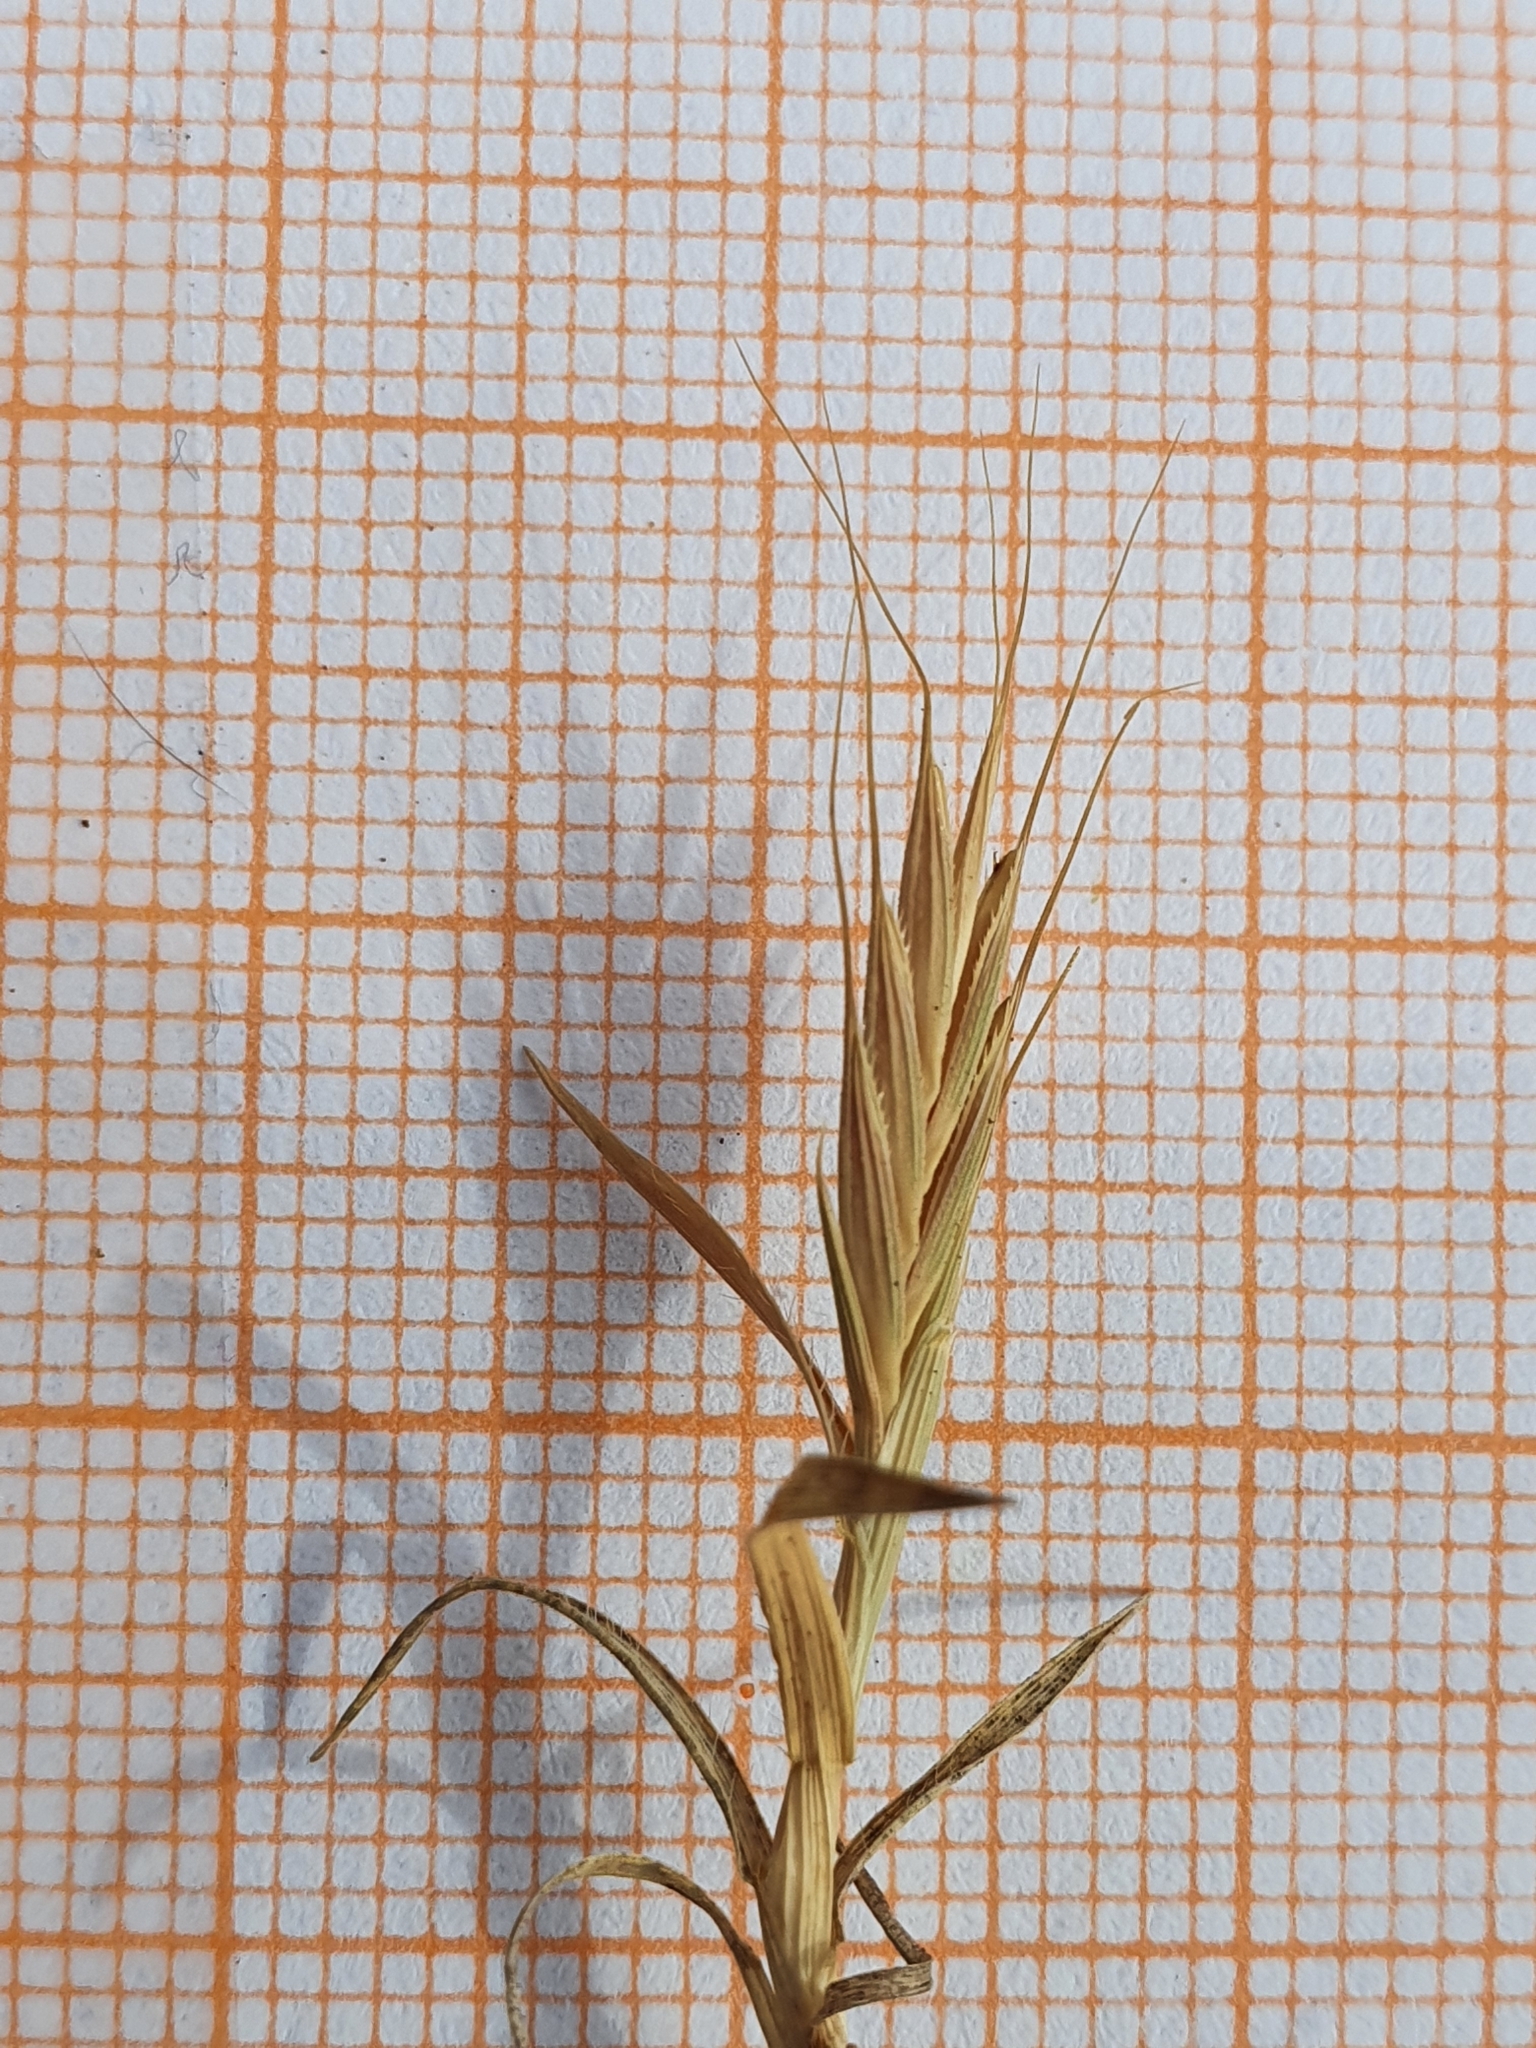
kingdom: Plantae
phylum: Tracheophyta
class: Liliopsida
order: Poales
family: Poaceae
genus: Brachypodium
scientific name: Brachypodium distachyon
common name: Stiff brome
